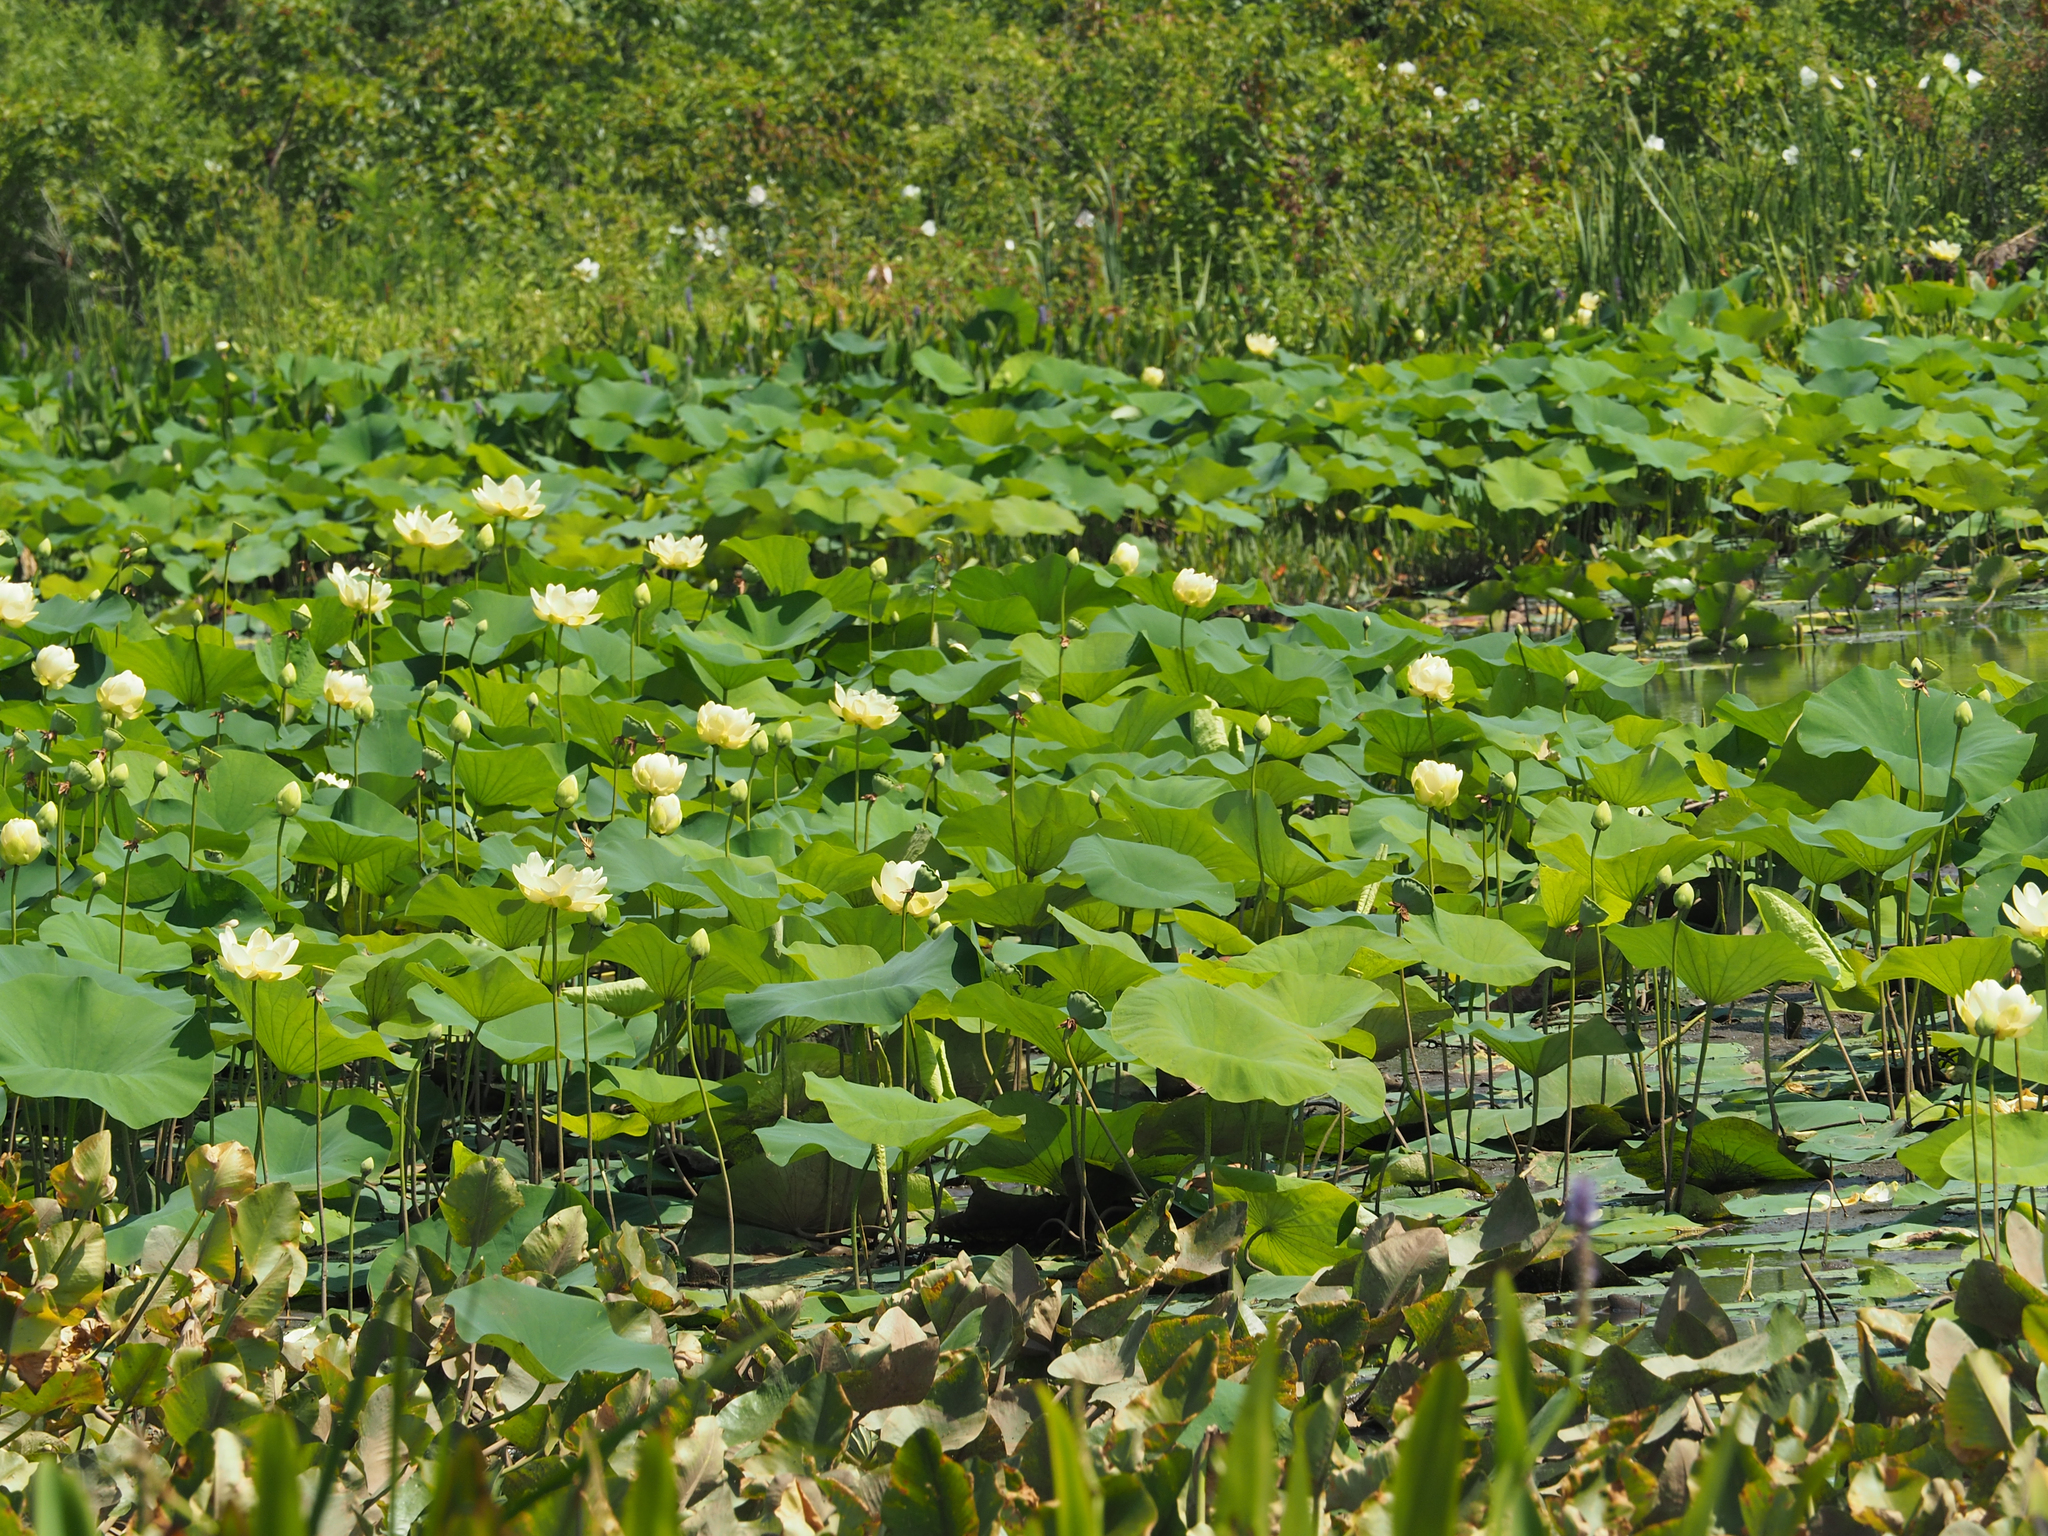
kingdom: Plantae
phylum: Tracheophyta
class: Magnoliopsida
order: Proteales
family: Nelumbonaceae
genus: Nelumbo
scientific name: Nelumbo lutea
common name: American lotus
